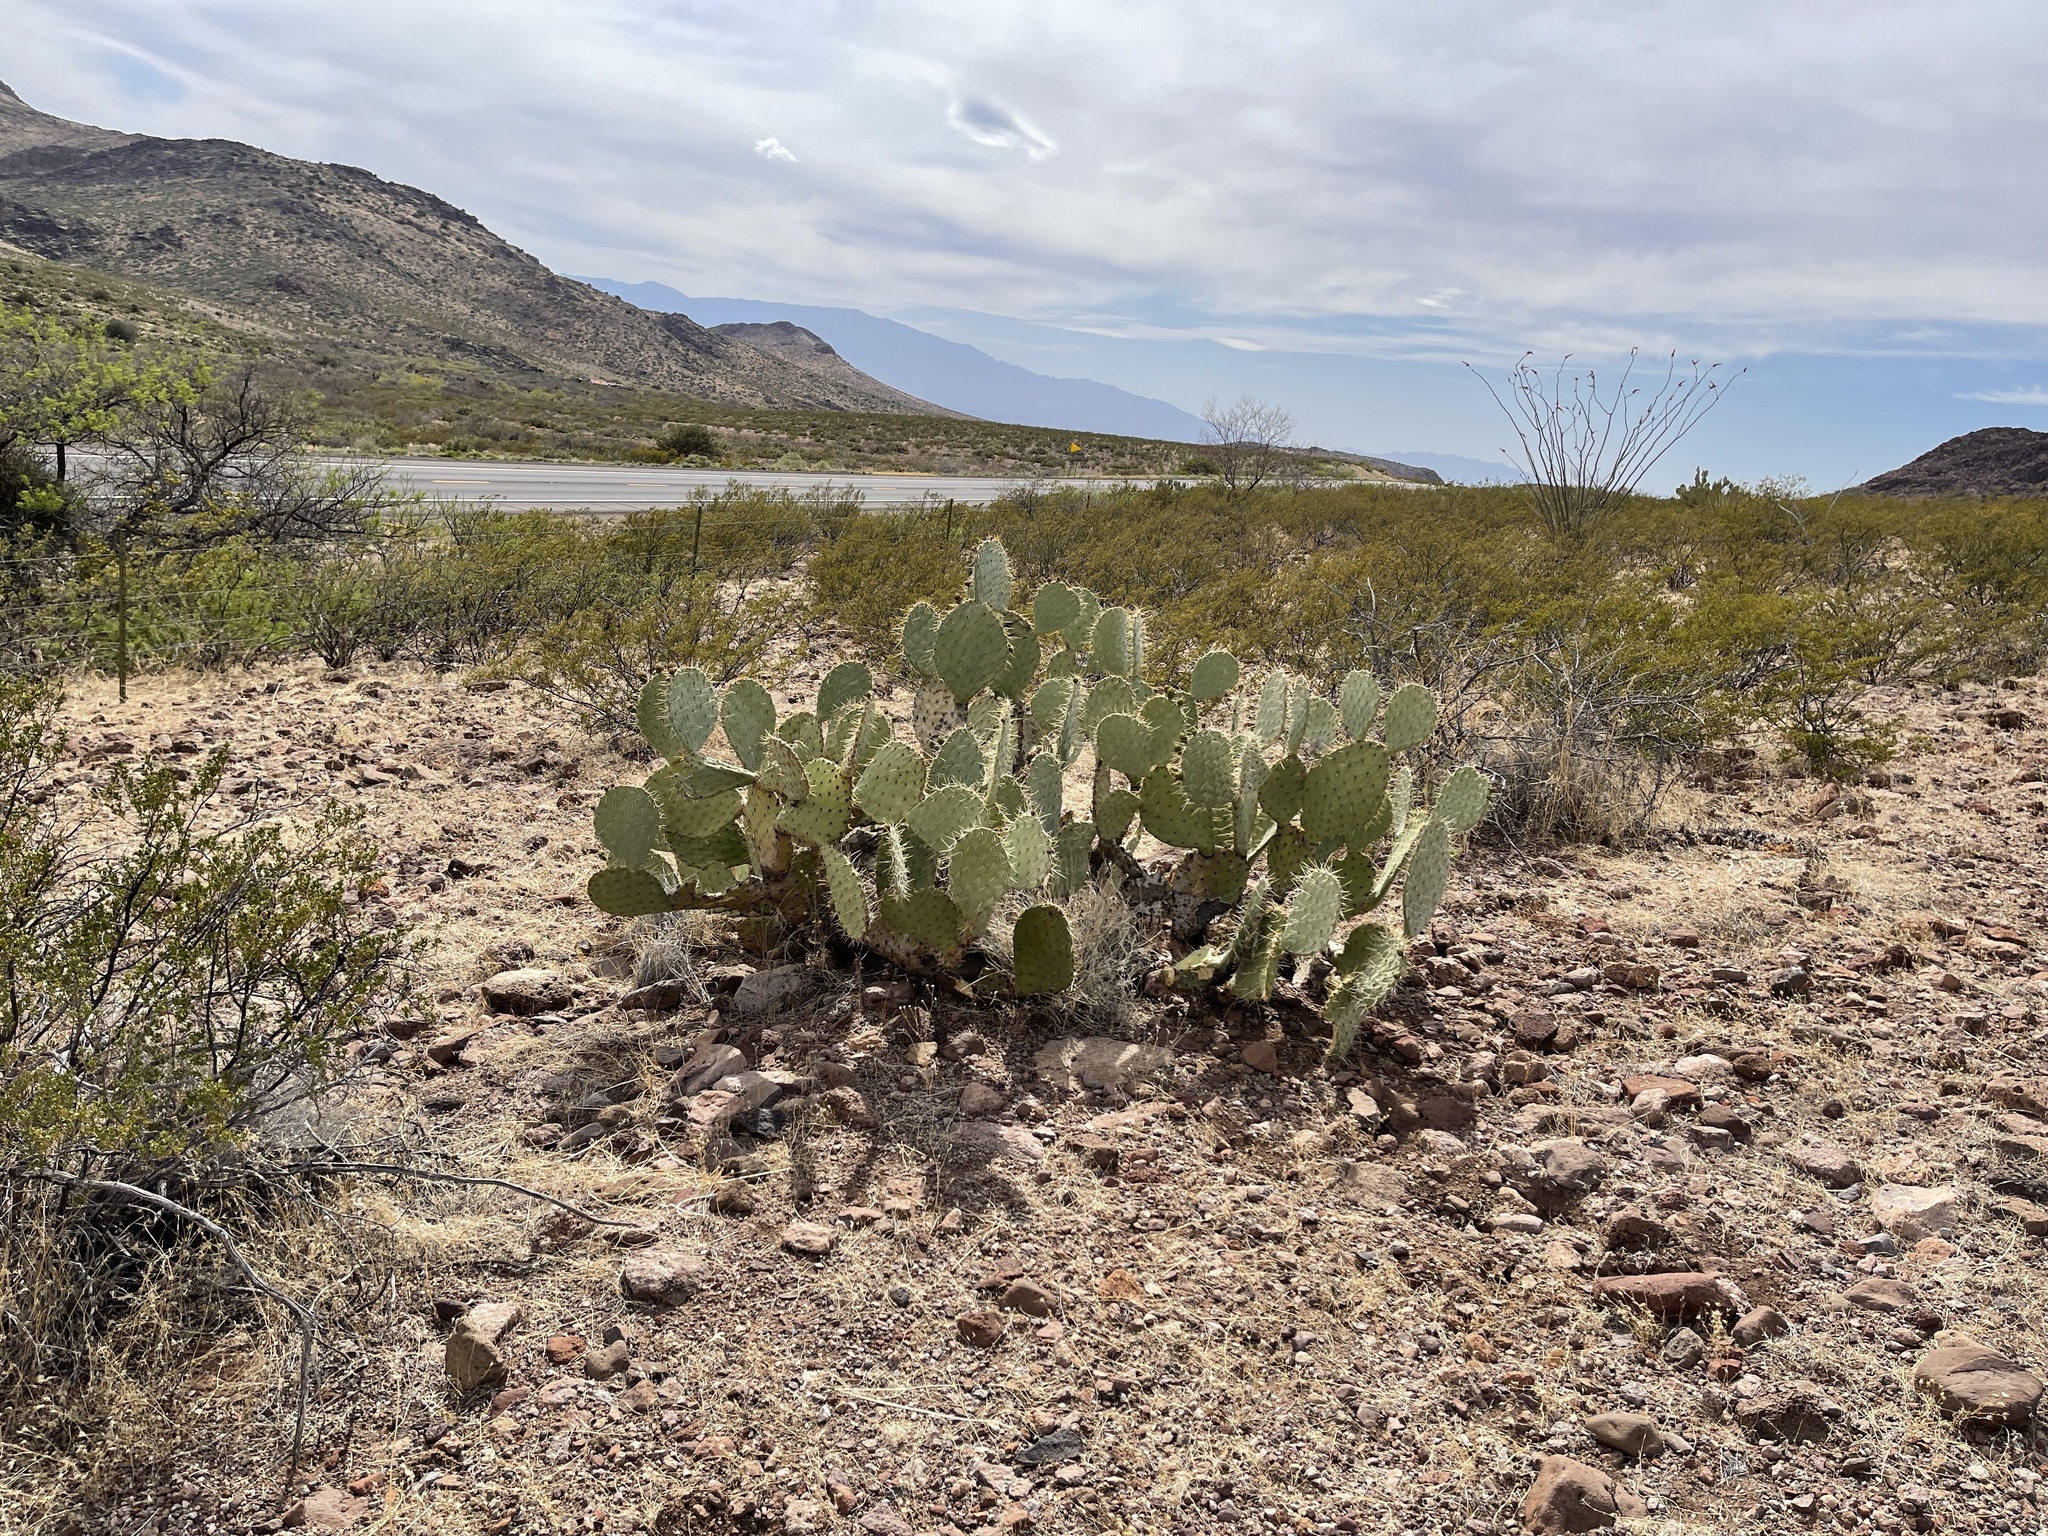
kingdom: Plantae
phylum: Tracheophyta
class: Magnoliopsida
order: Caryophyllales
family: Cactaceae
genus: Opuntia
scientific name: Opuntia engelmannii
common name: Cactus-apple
